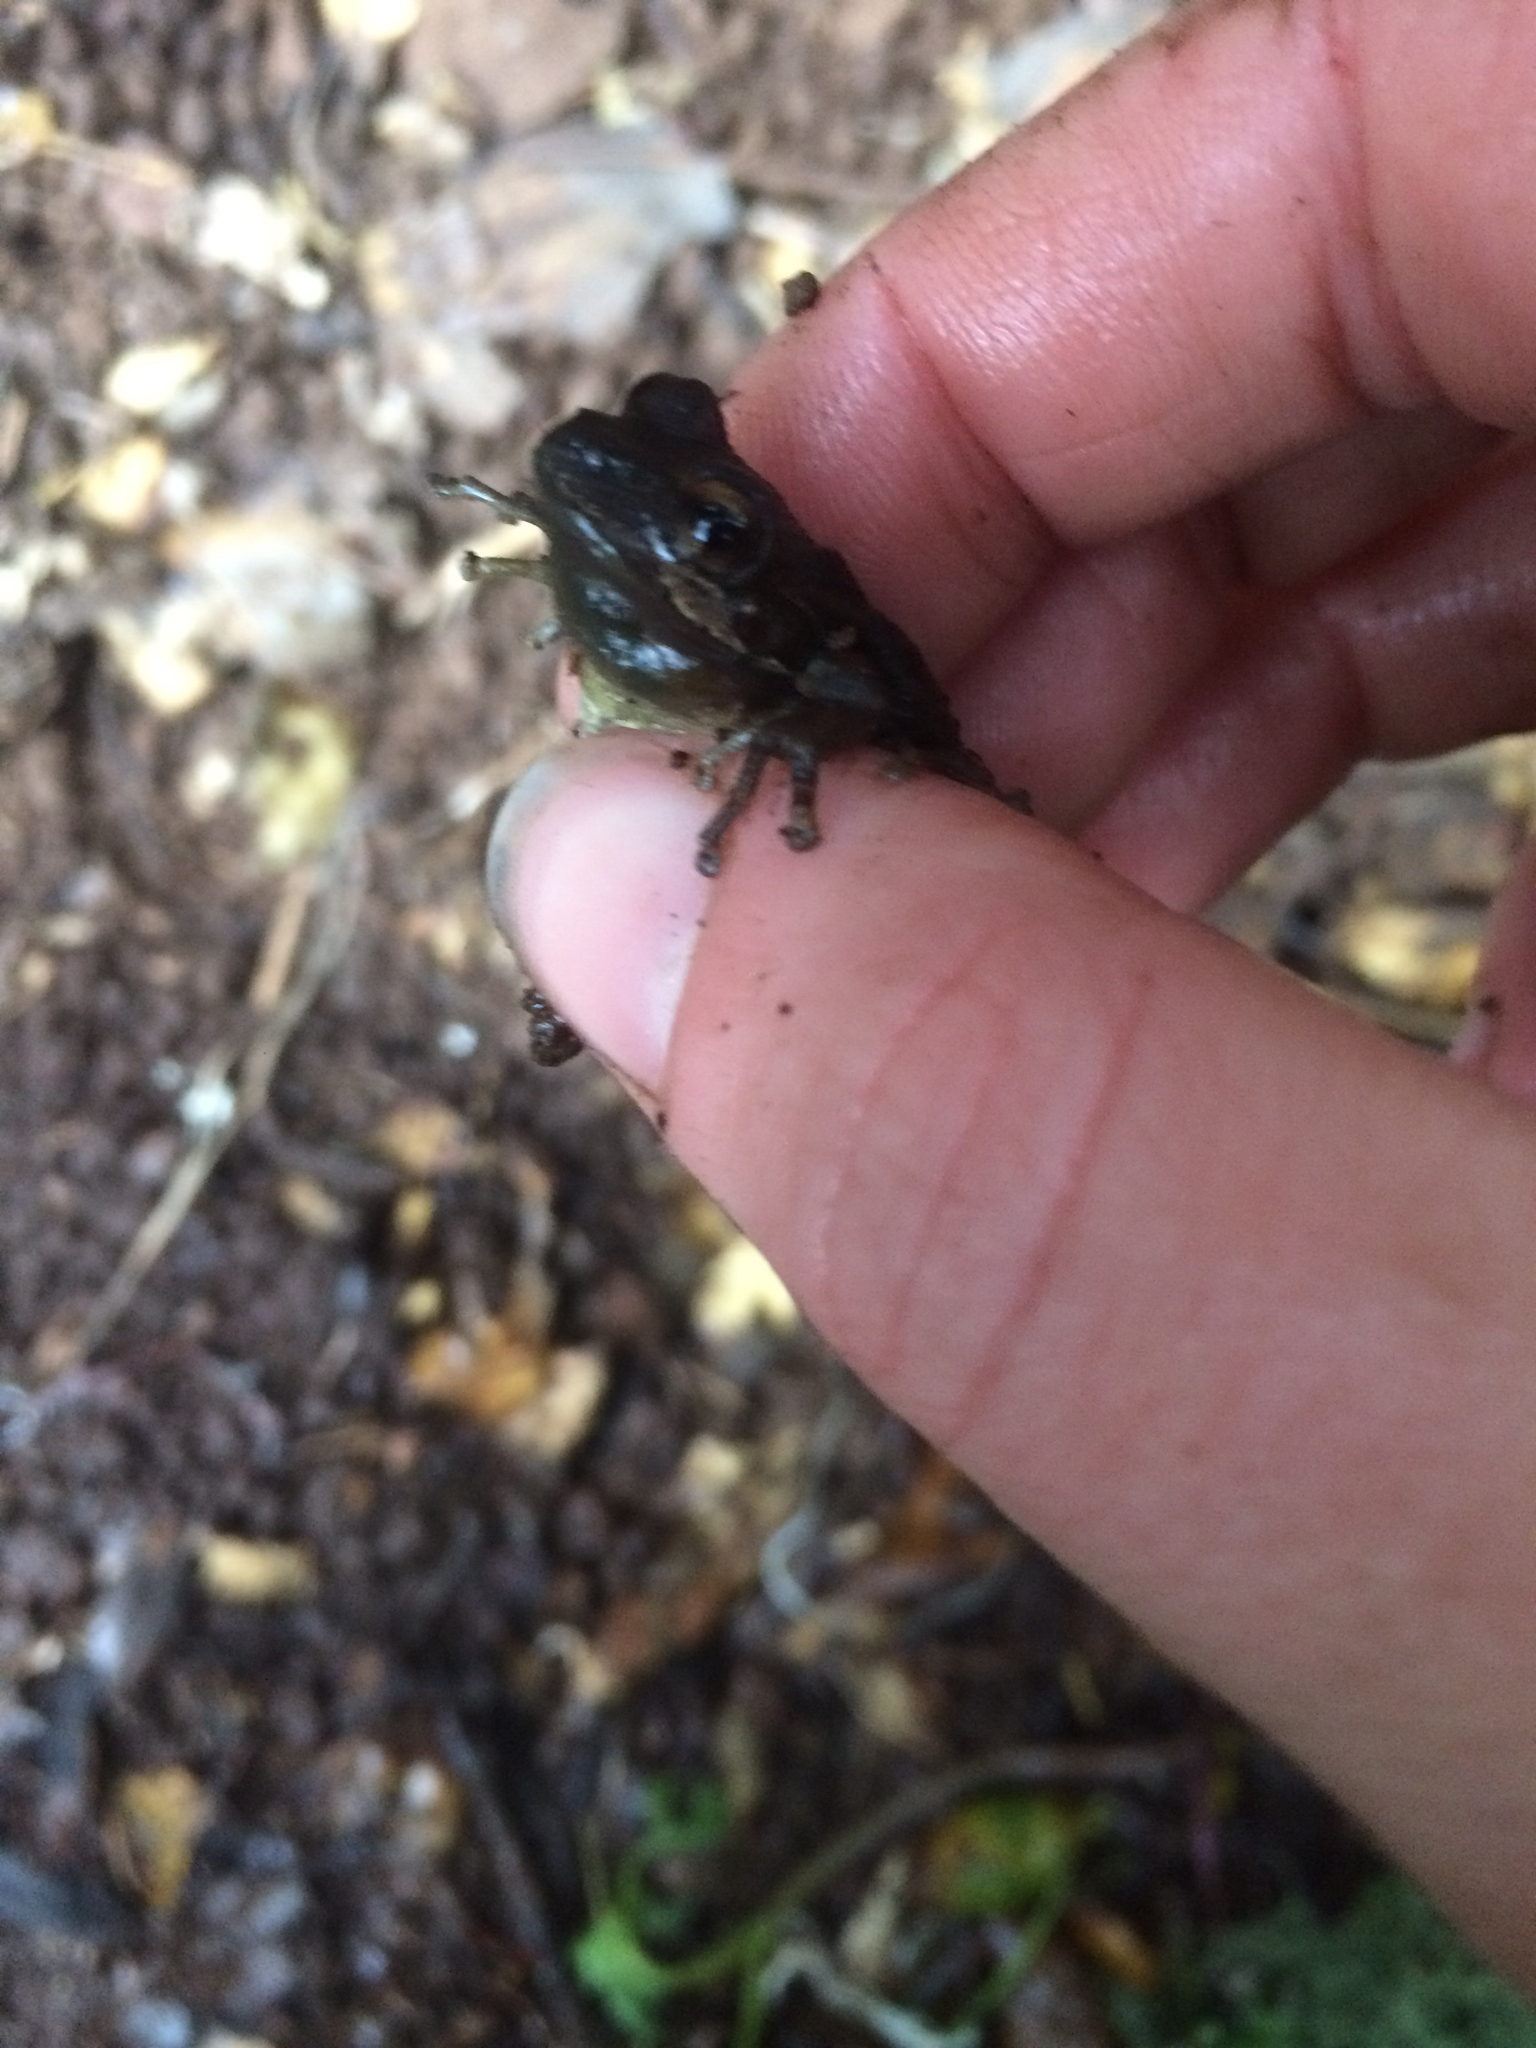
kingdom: Animalia
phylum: Chordata
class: Amphibia
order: Anura
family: Hylidae
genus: Pseudacris
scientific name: Pseudacris regilla
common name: Pacific chorus frog
